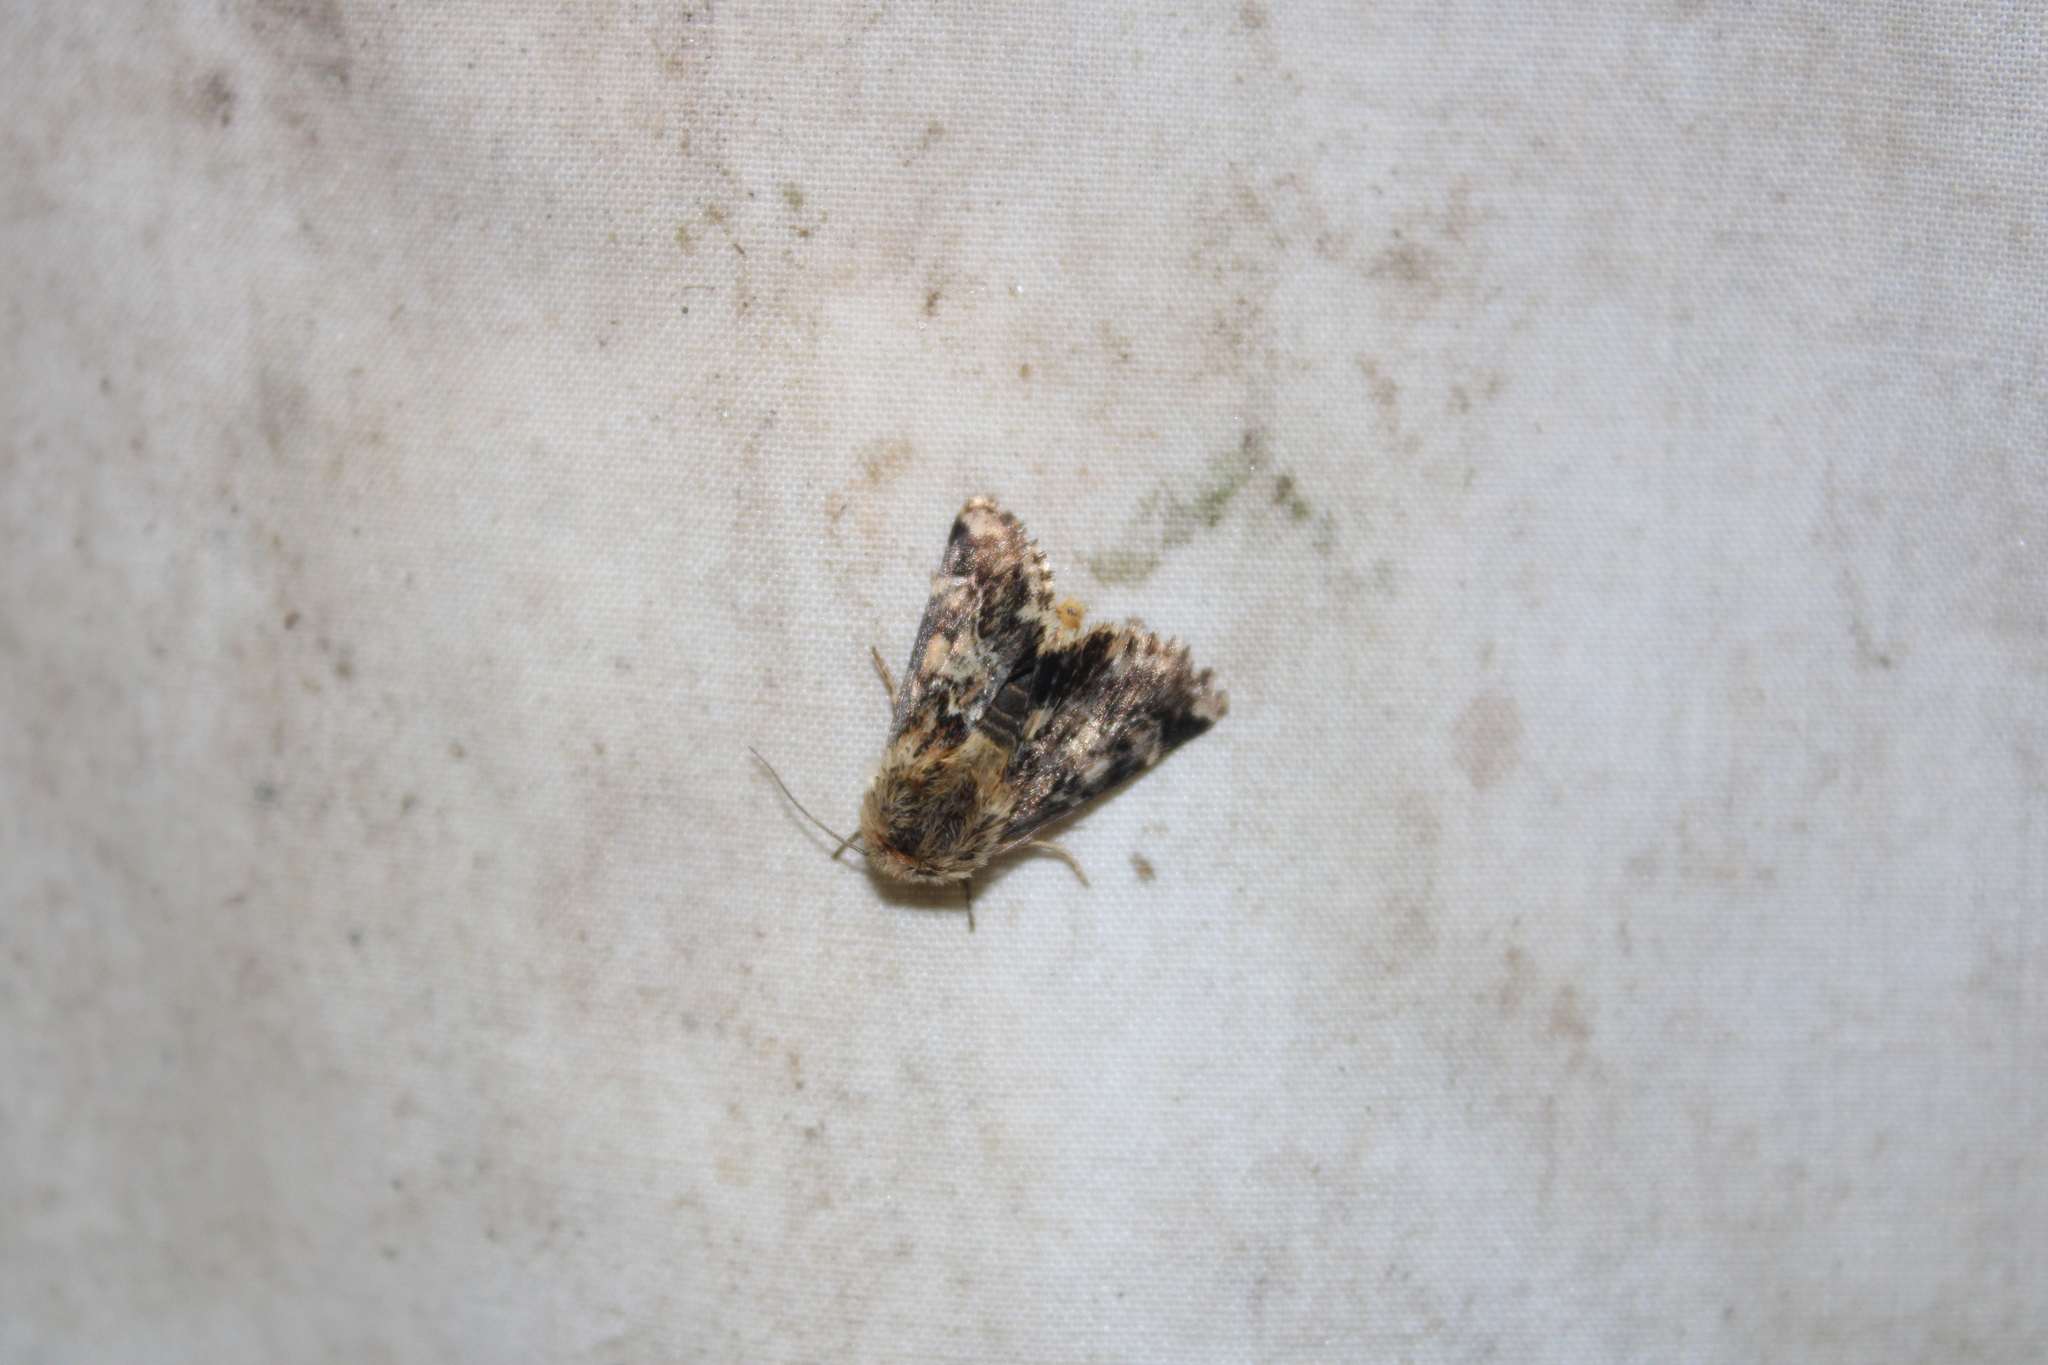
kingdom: Animalia
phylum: Arthropoda
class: Insecta
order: Lepidoptera
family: Noctuidae
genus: Schinia
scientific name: Schinia septentrionalis
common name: Northern flower moth
